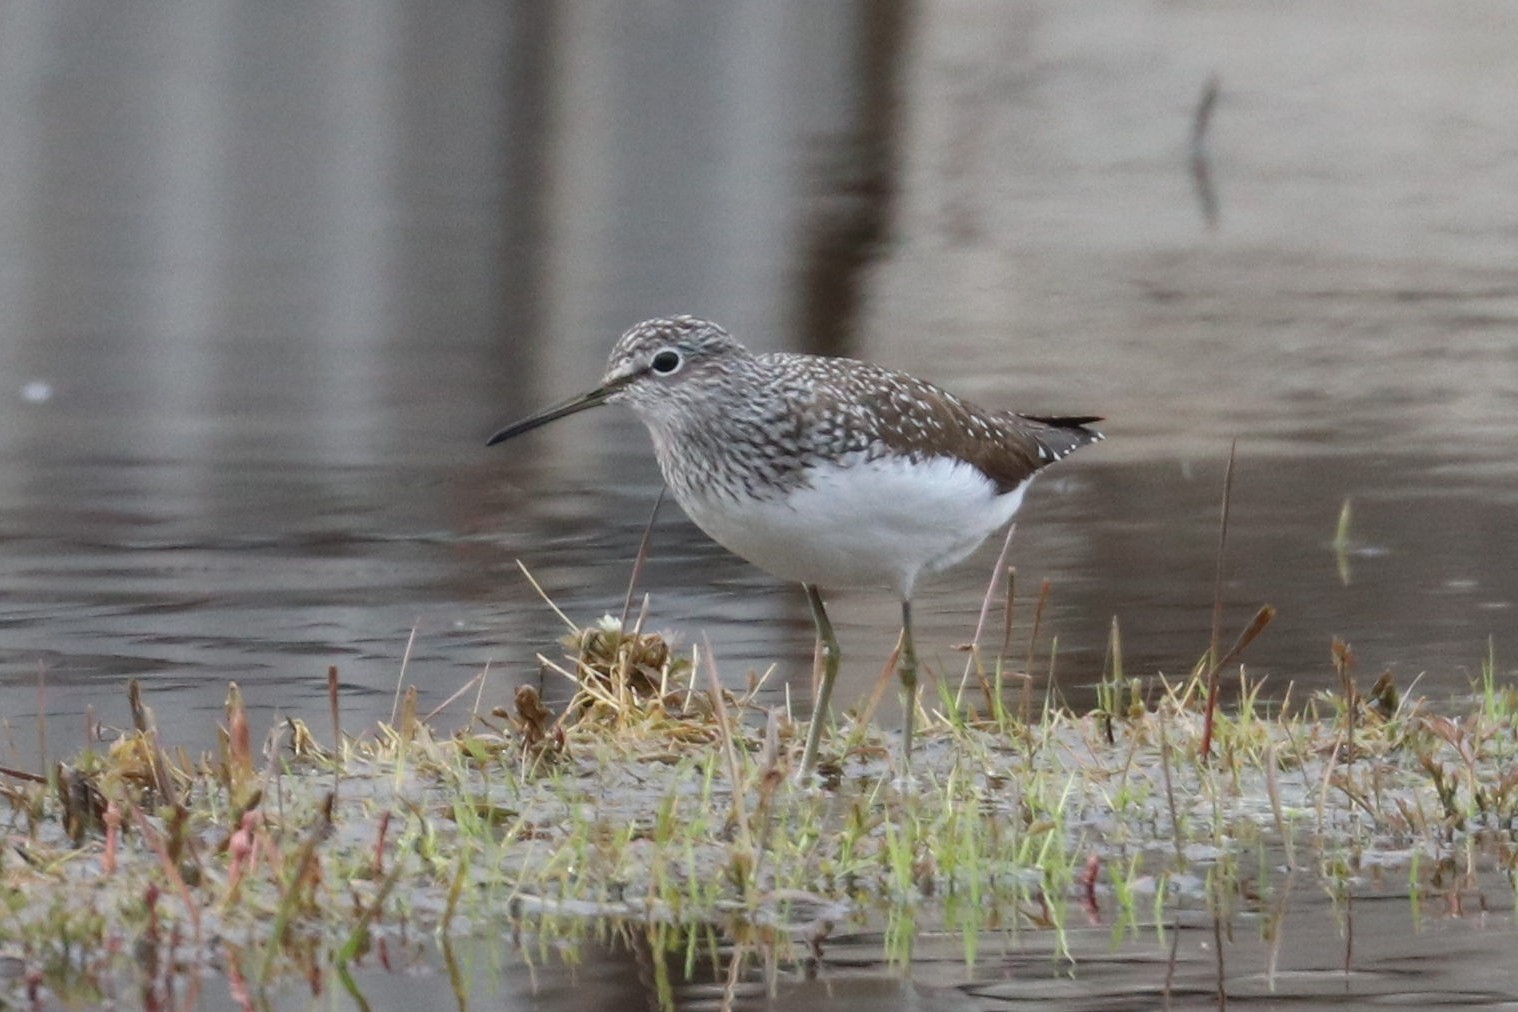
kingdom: Animalia
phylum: Chordata
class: Aves
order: Charadriiformes
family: Scolopacidae
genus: Tringa
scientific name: Tringa ochropus
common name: Green sandpiper
